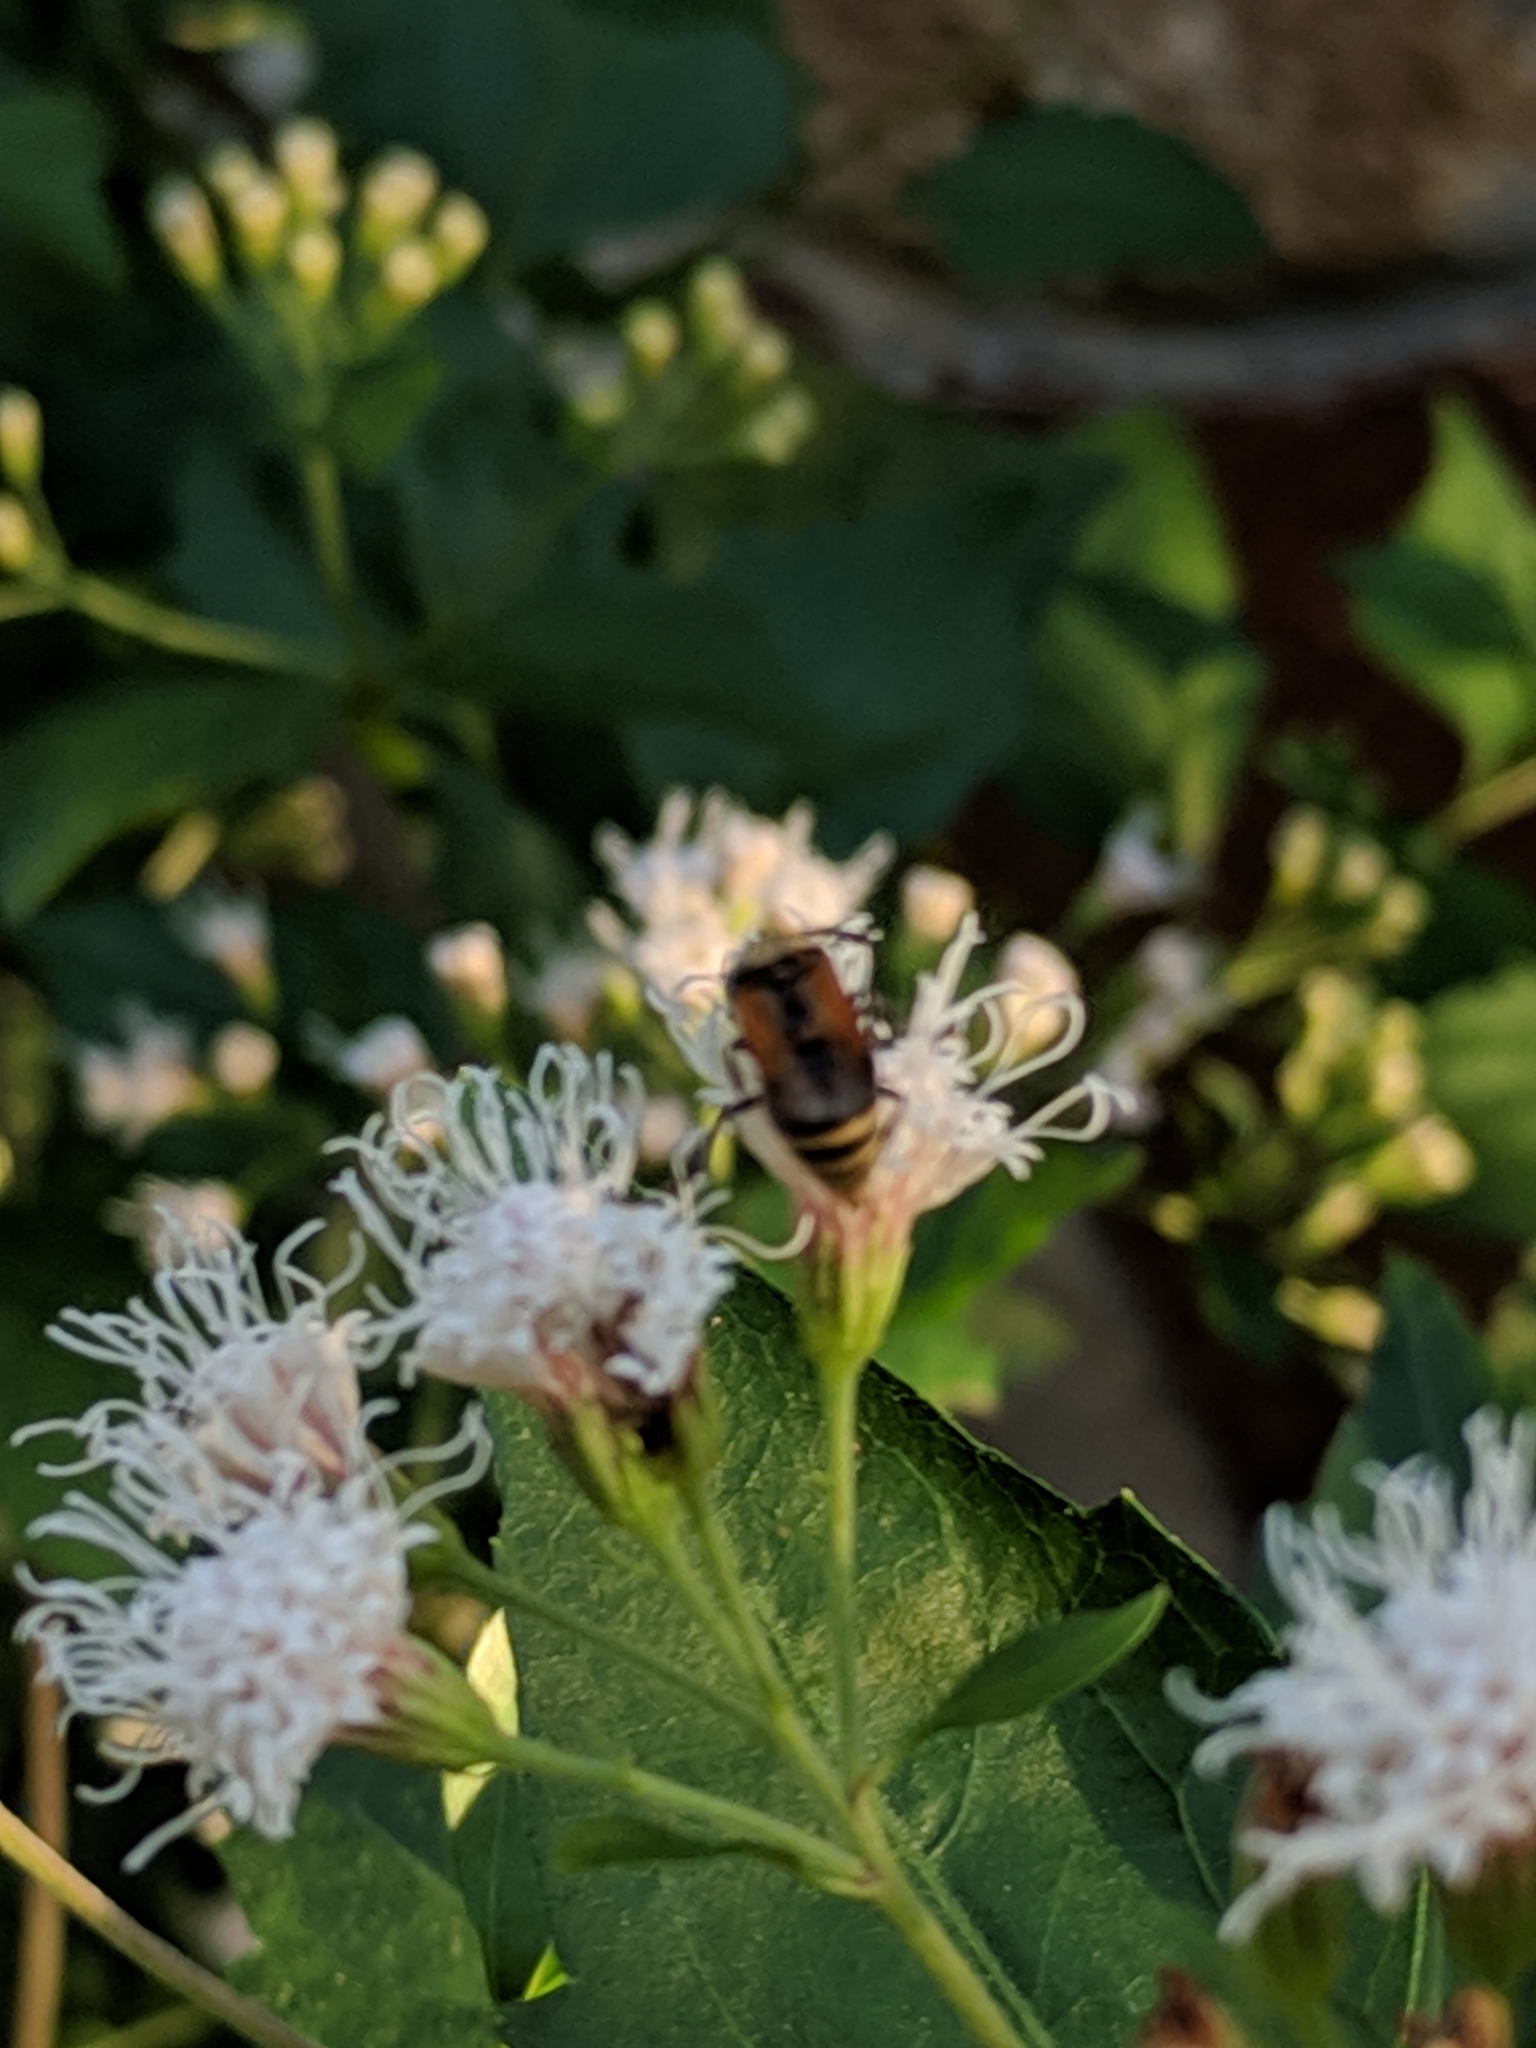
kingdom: Animalia
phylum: Arthropoda
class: Insecta
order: Hymenoptera
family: Vespidae
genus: Brachygastra
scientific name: Brachygastra mellifica
